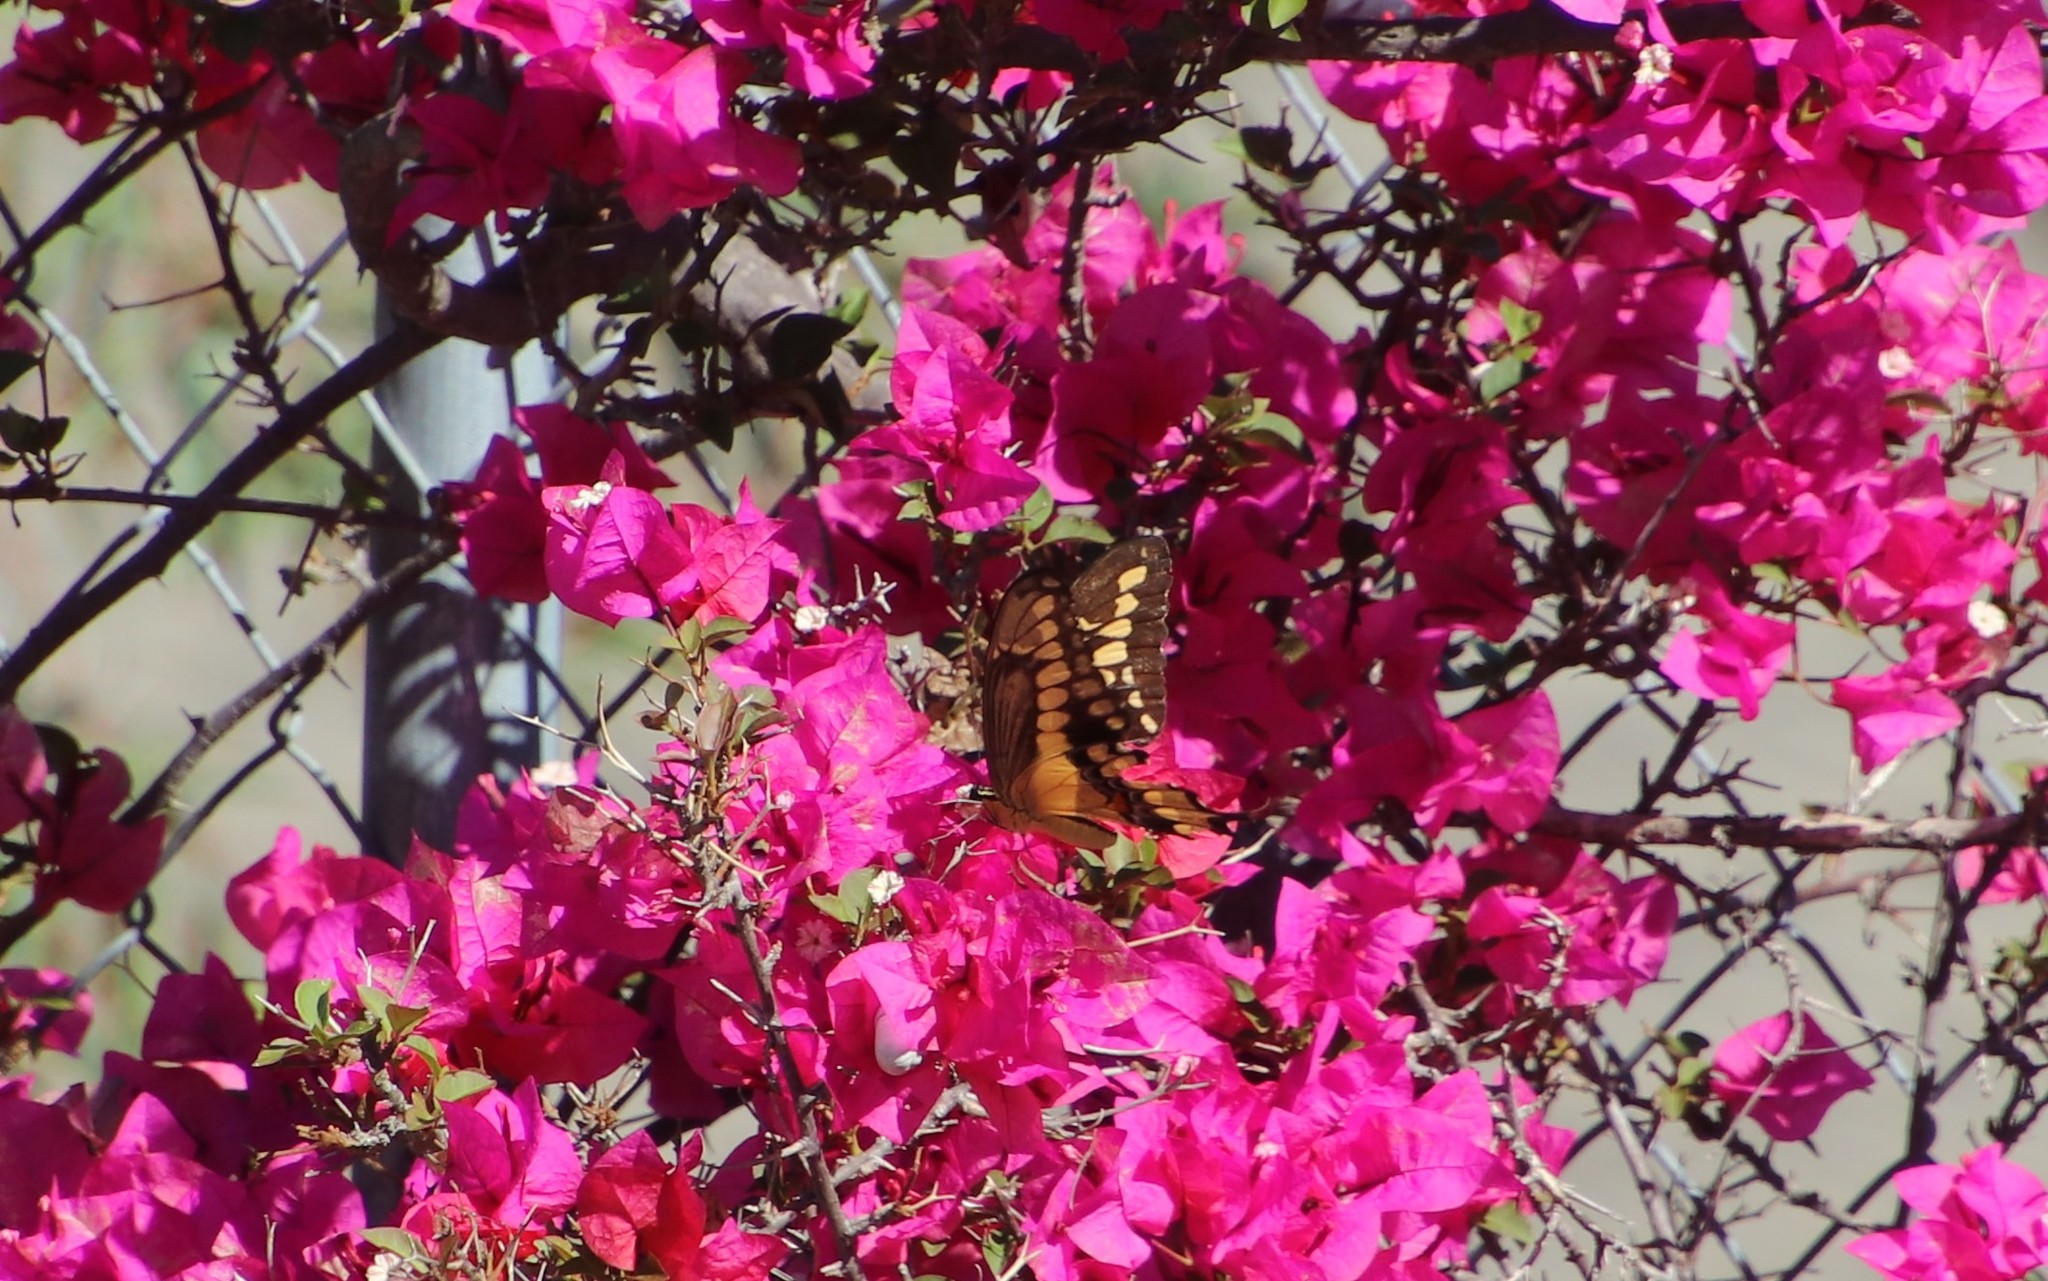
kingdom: Animalia
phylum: Arthropoda
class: Insecta
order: Lepidoptera
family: Papilionidae
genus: Papilio
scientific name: Papilio rumiko
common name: Western giant swallowtail
